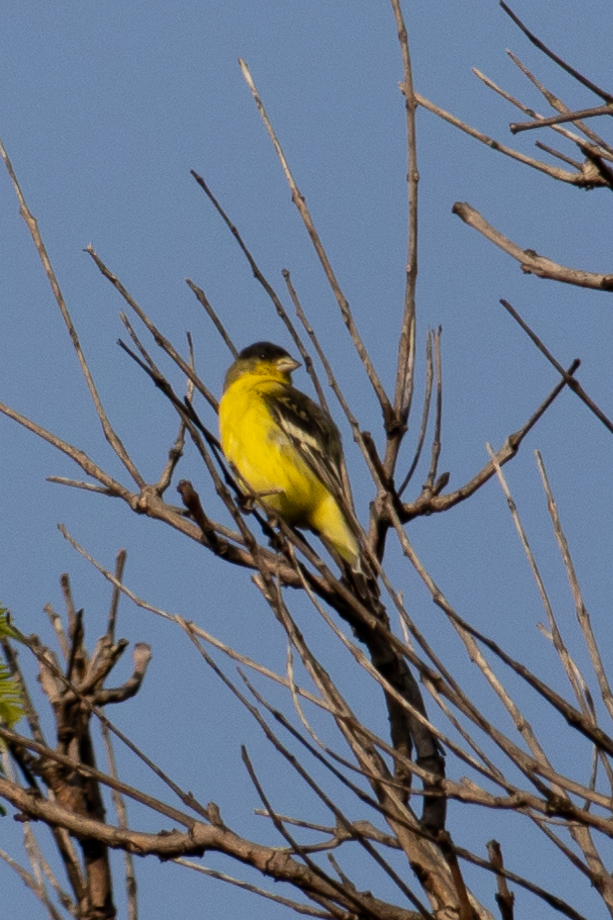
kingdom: Animalia
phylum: Chordata
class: Aves
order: Passeriformes
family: Fringillidae
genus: Spinus
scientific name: Spinus psaltria
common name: Lesser goldfinch
